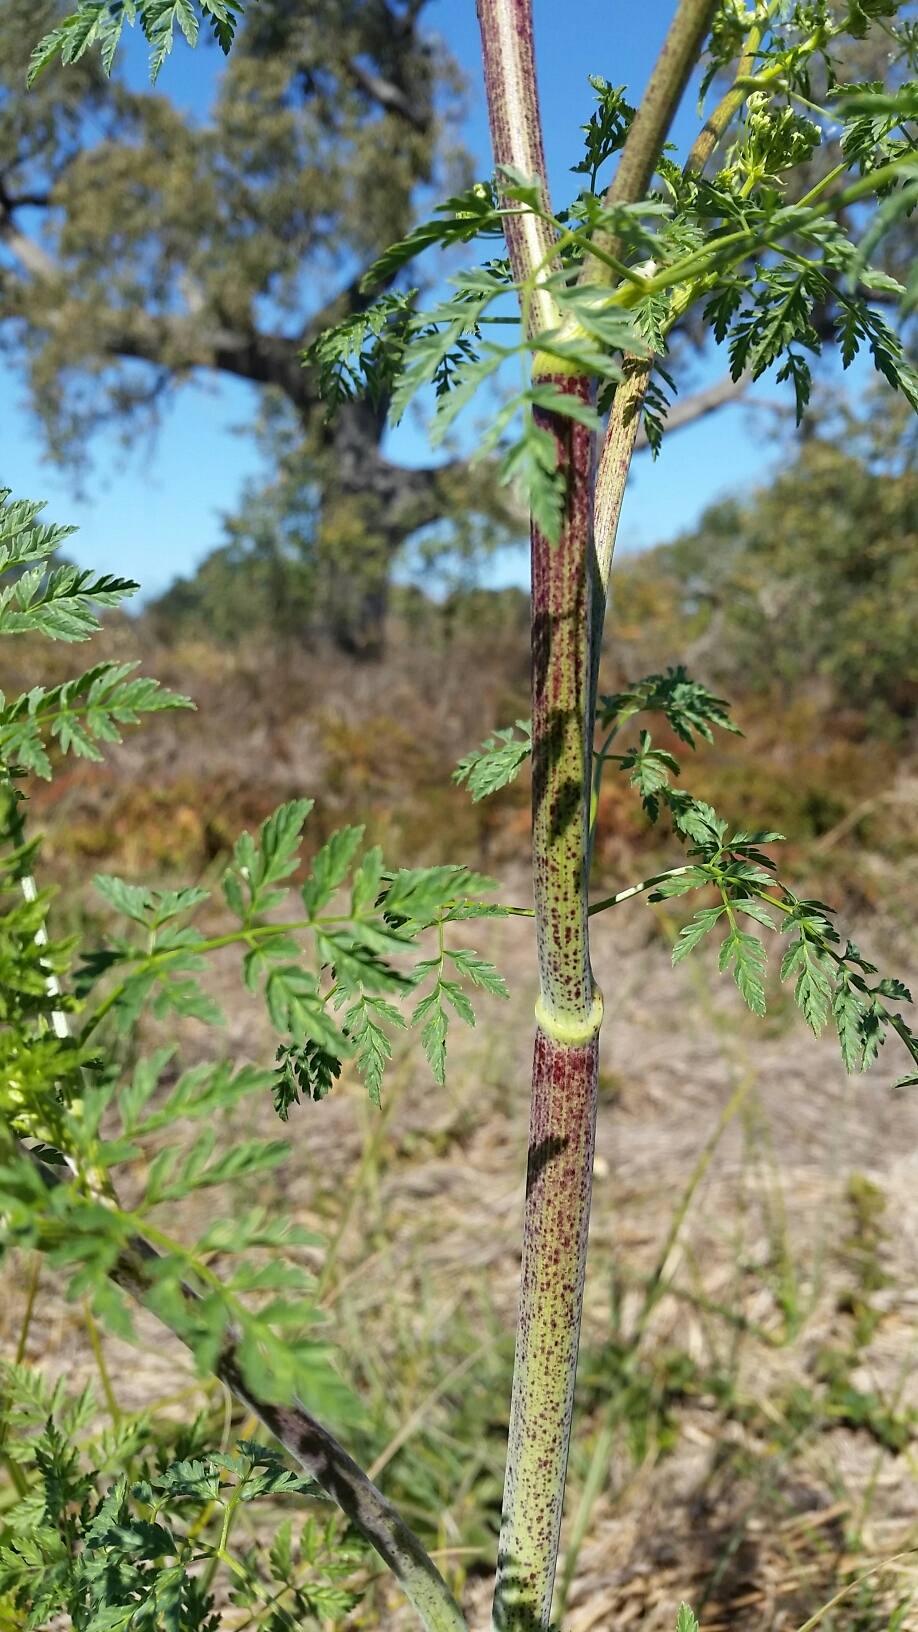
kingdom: Plantae
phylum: Tracheophyta
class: Magnoliopsida
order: Apiales
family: Apiaceae
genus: Conium
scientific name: Conium maculatum
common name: Hemlock
